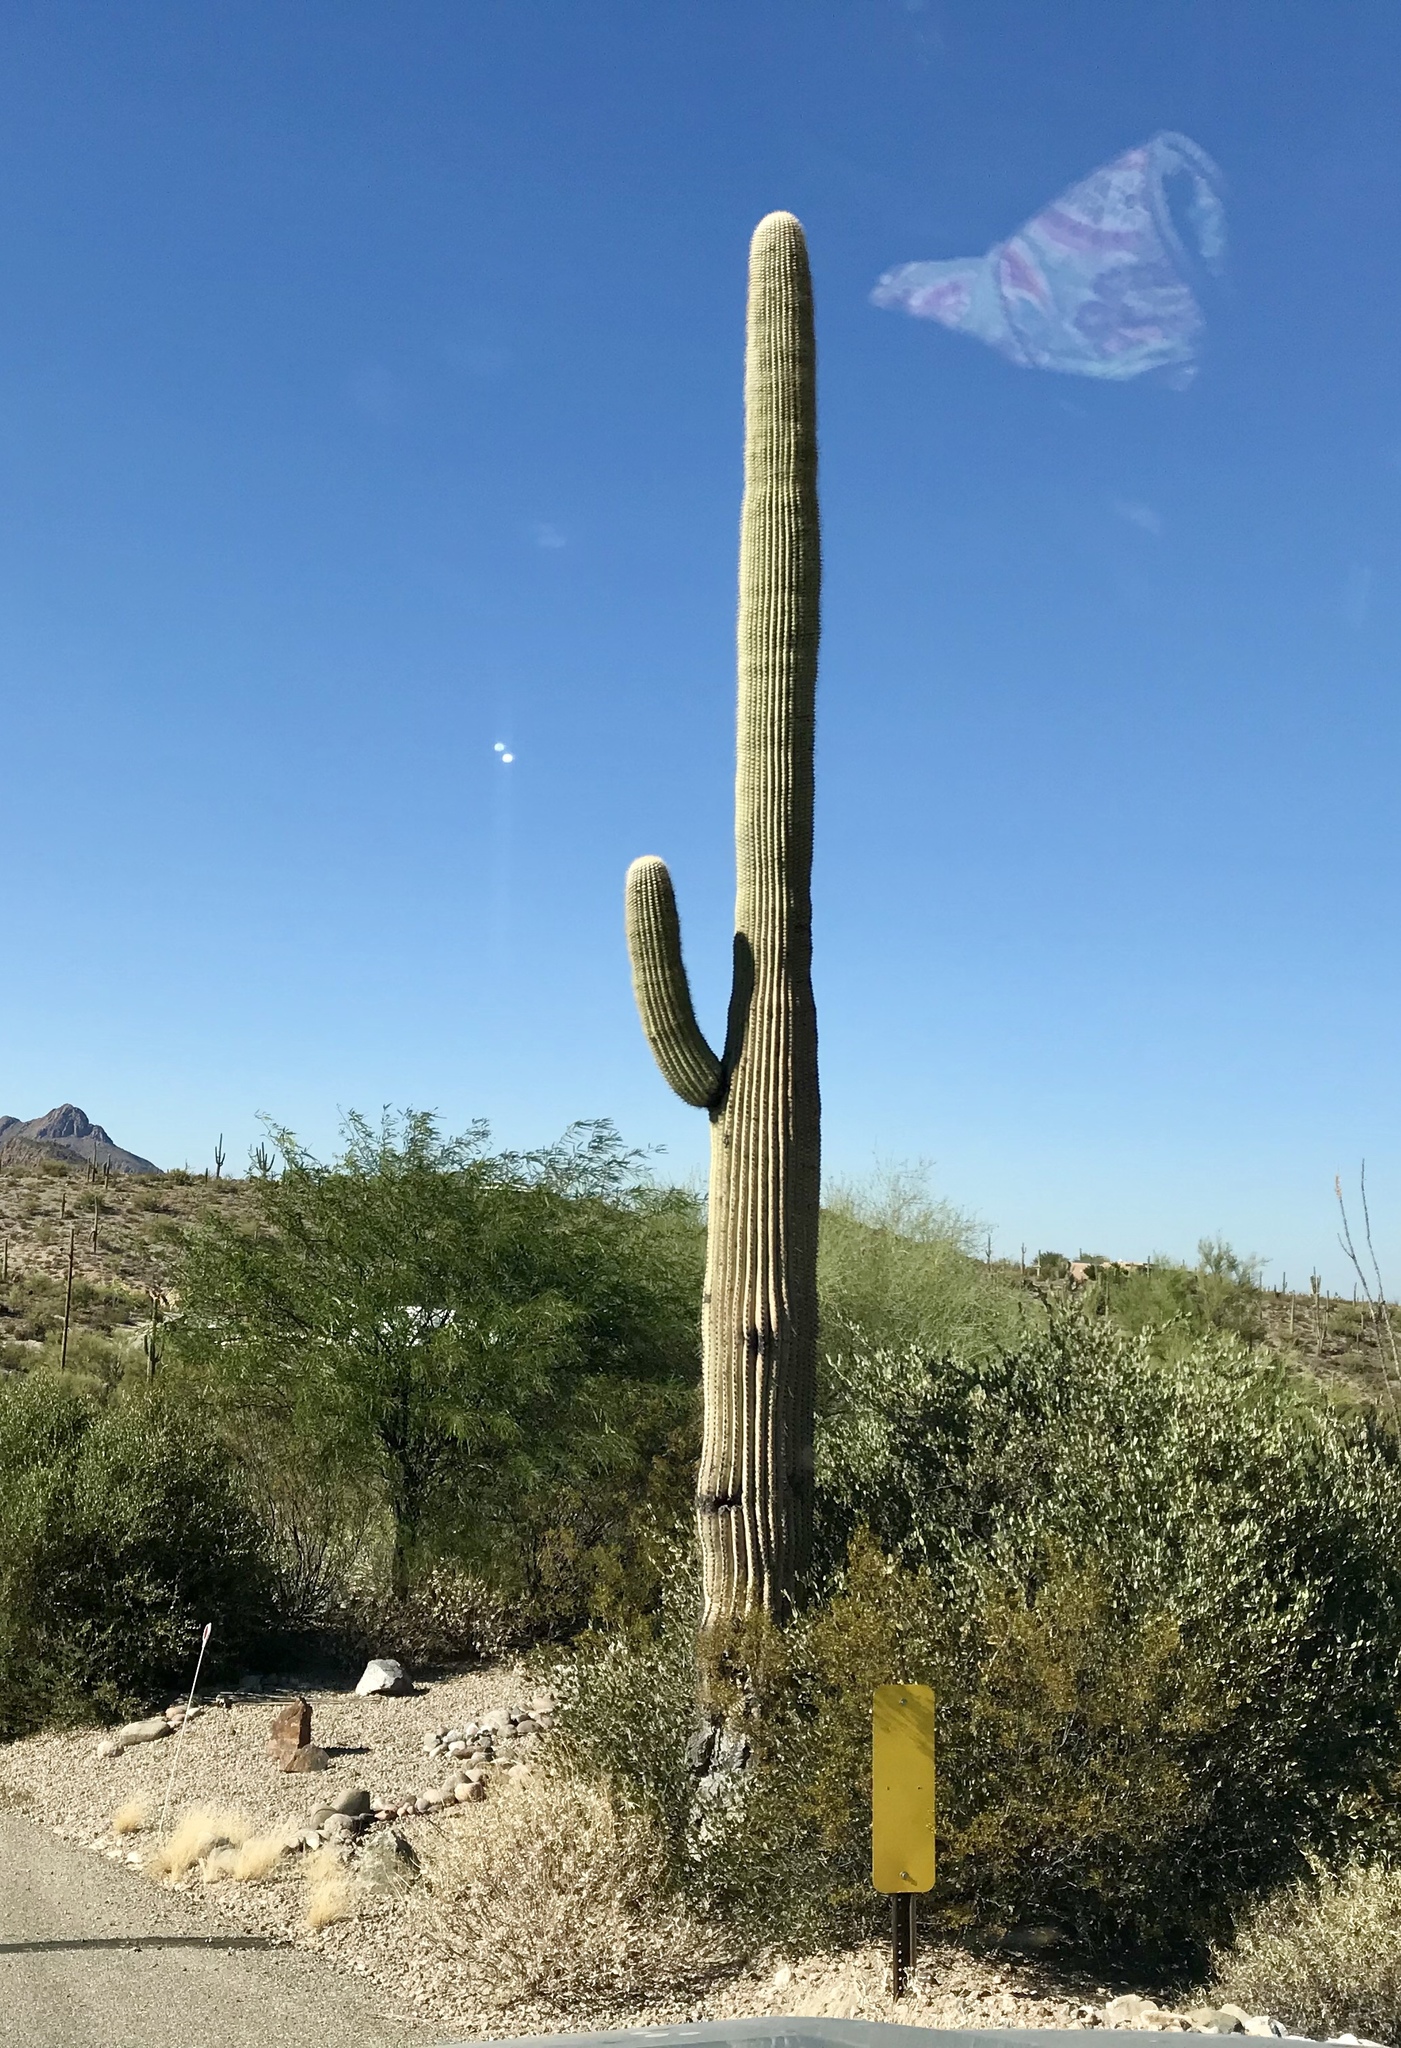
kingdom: Plantae
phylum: Tracheophyta
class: Magnoliopsida
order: Caryophyllales
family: Cactaceae
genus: Carnegiea
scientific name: Carnegiea gigantea
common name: Saguaro
